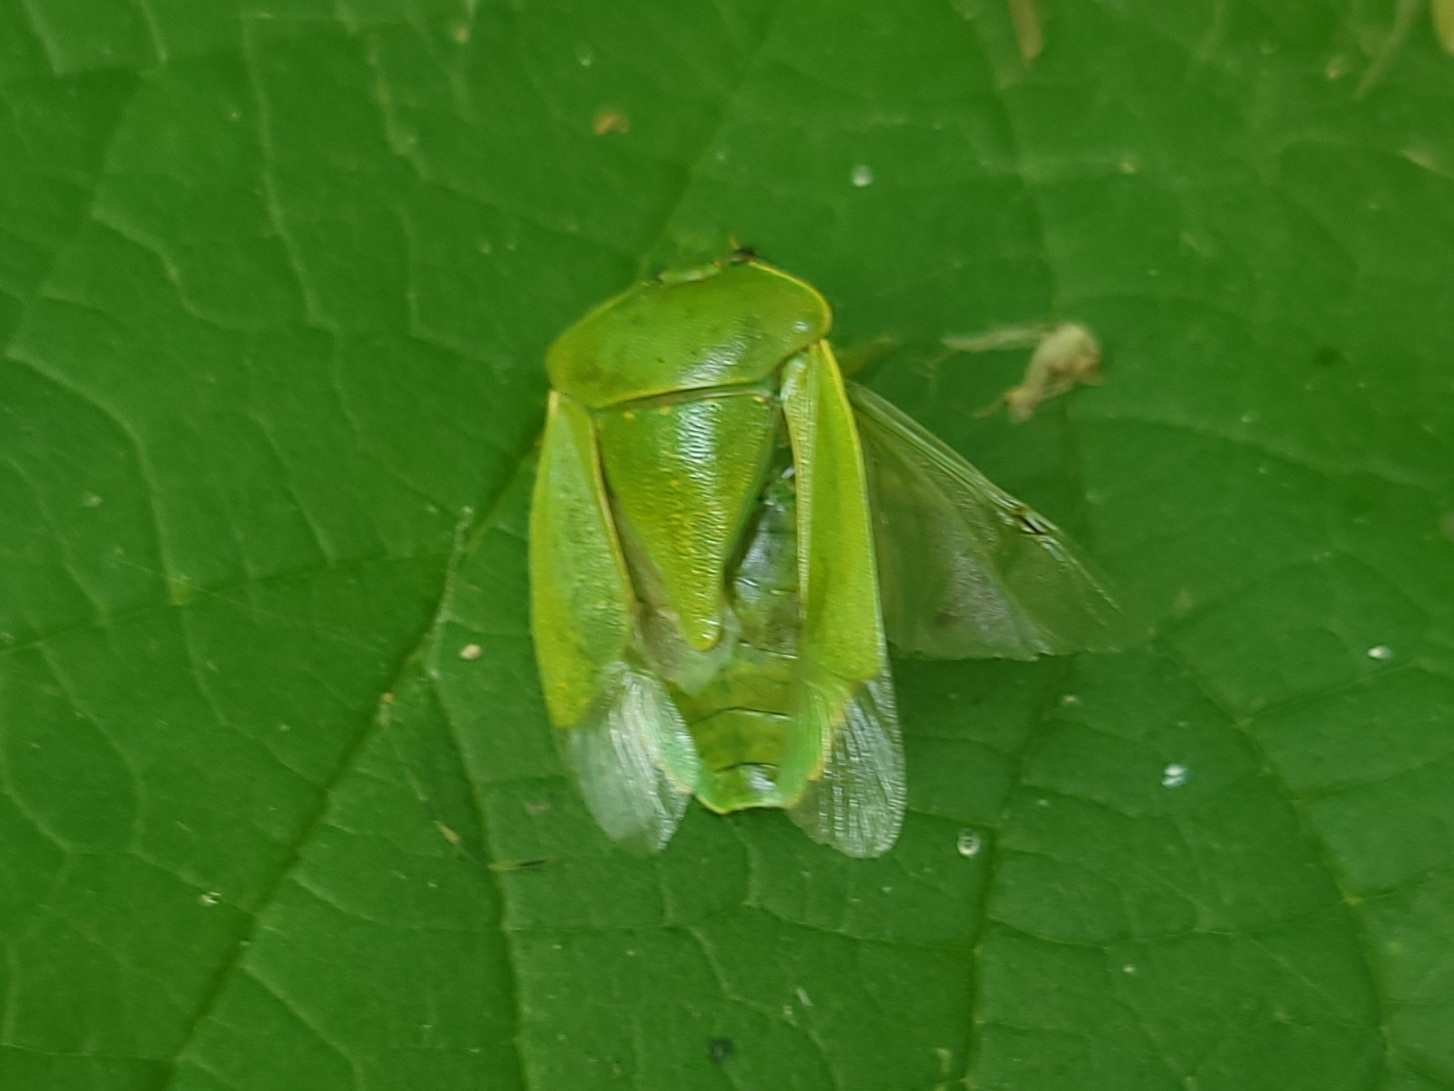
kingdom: Animalia
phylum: Arthropoda
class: Insecta
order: Hemiptera
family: Pentatomidae
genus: Chinavia
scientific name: Chinavia hilaris
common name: Green stink bug
